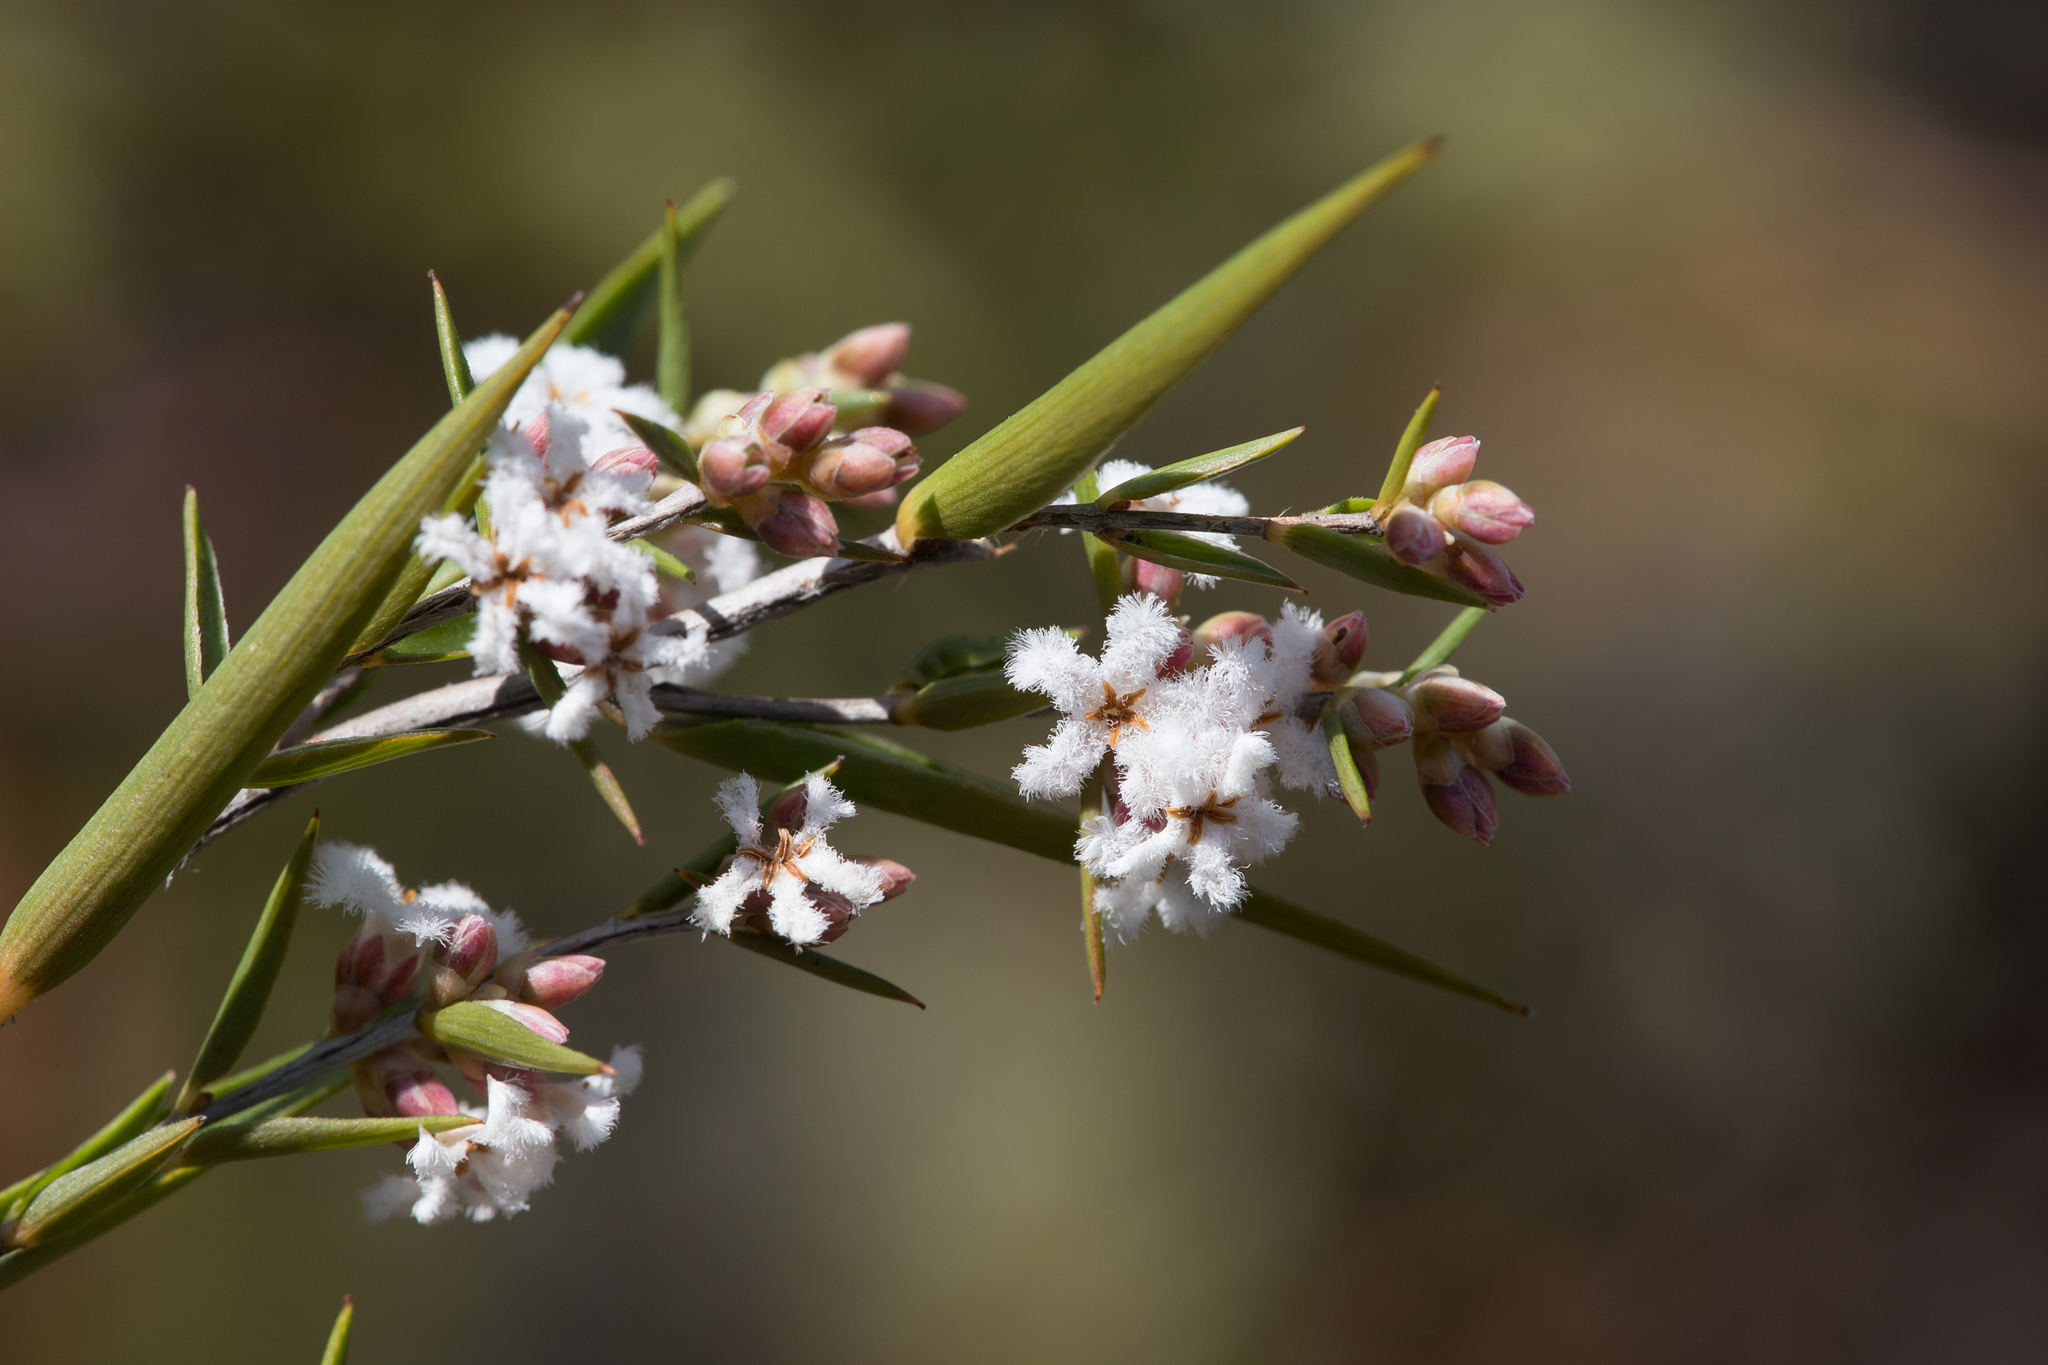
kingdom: Plantae
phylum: Tracheophyta
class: Magnoliopsida
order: Ericales
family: Ericaceae
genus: Leucopogon
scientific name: Leucopogon virgatus
